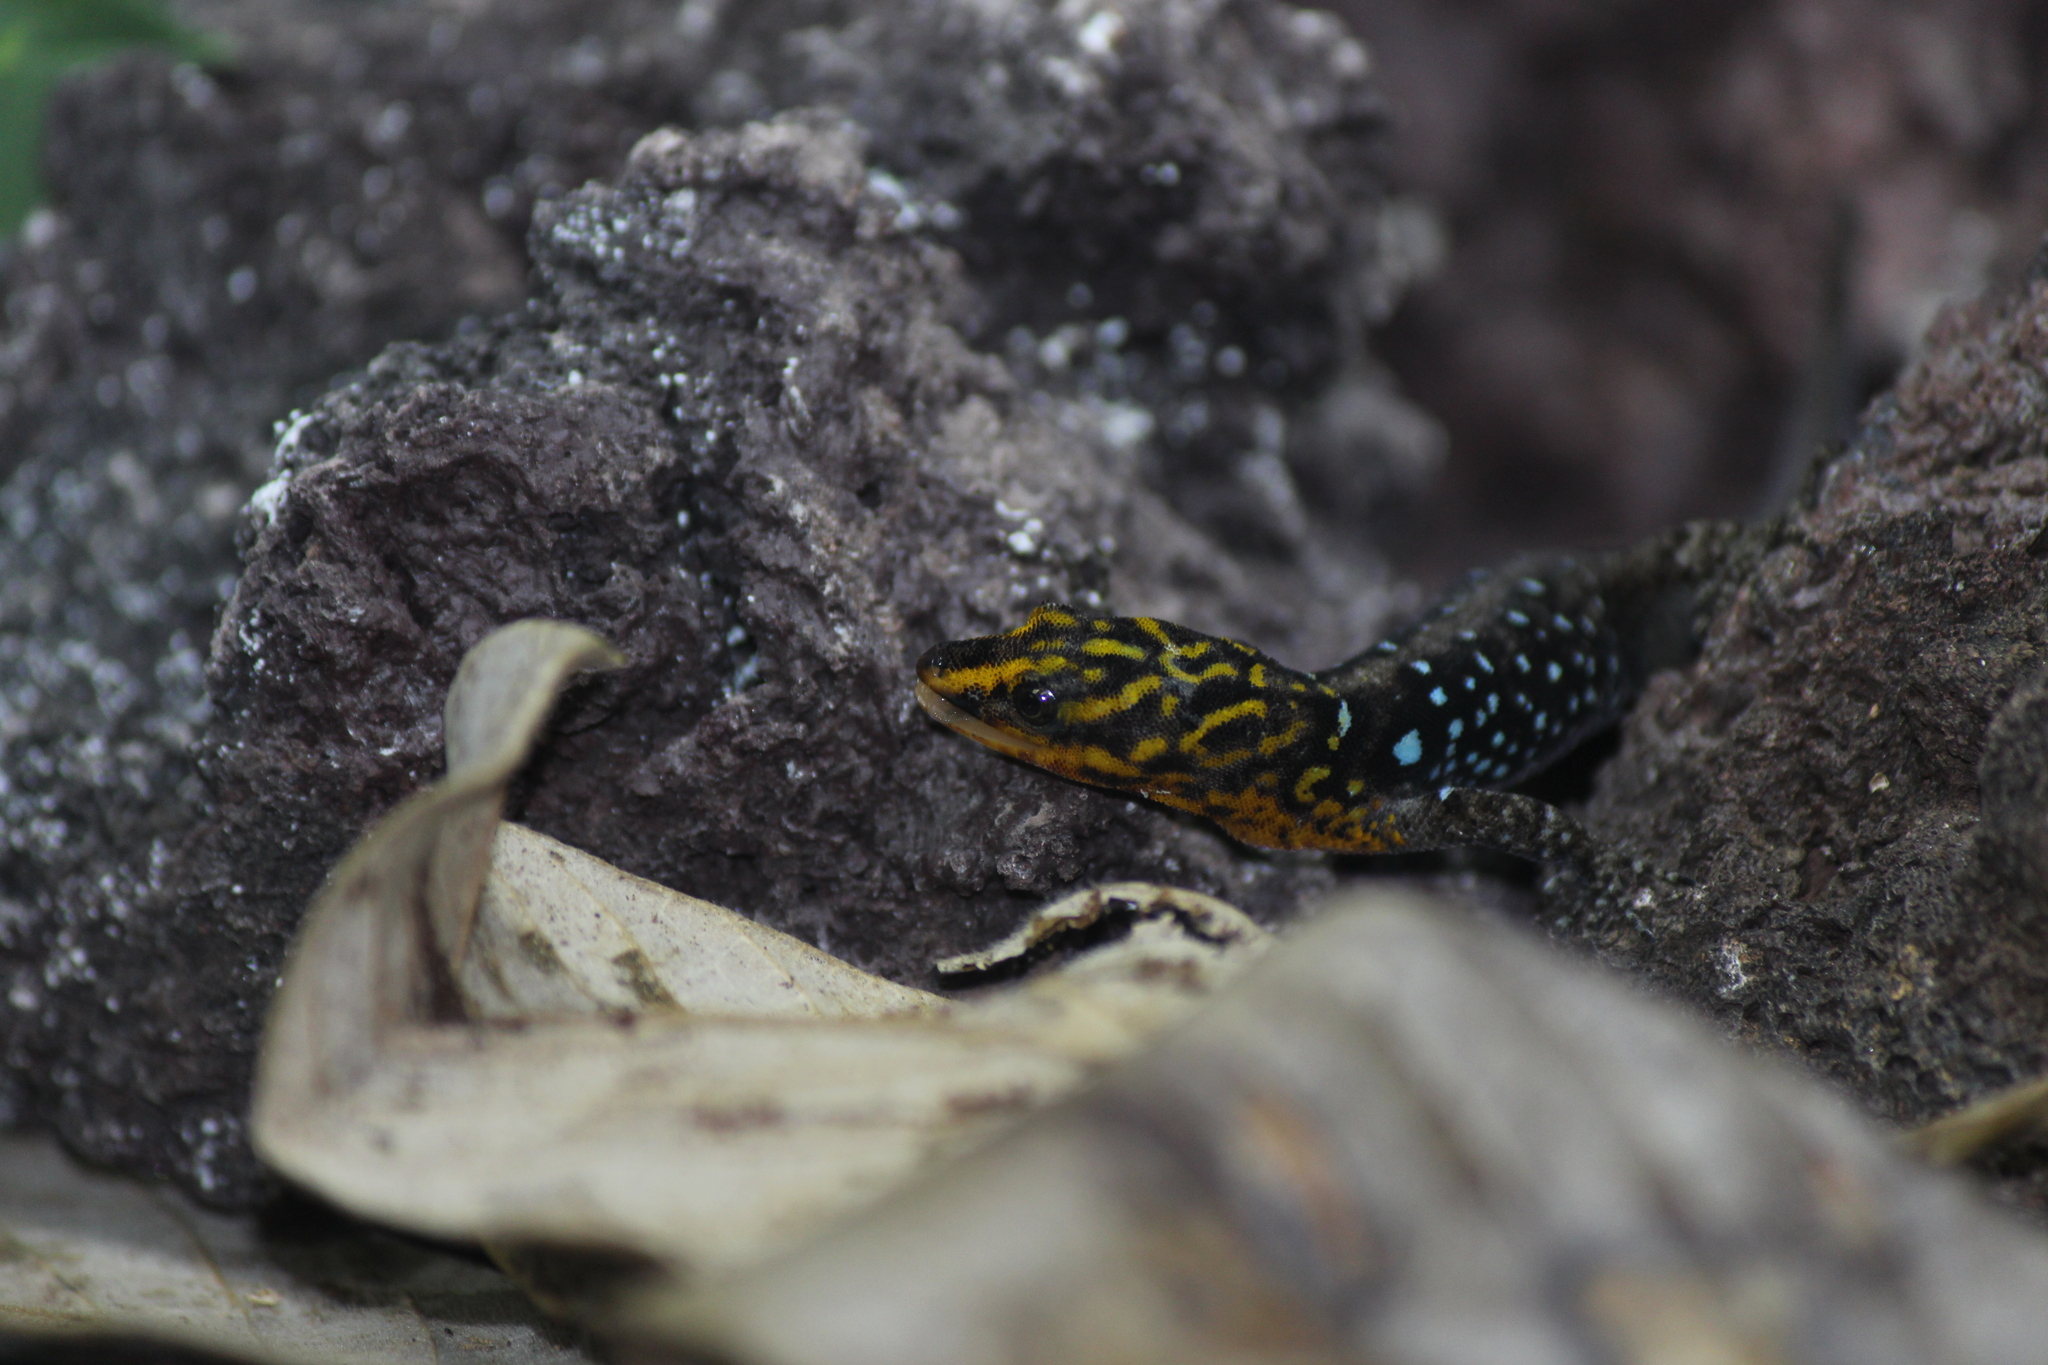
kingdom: Animalia
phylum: Chordata
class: Squamata
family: Sphaerodactylidae
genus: Gonatodes
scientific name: Gonatodes caudiscutatus
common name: Shieldhead gecko
